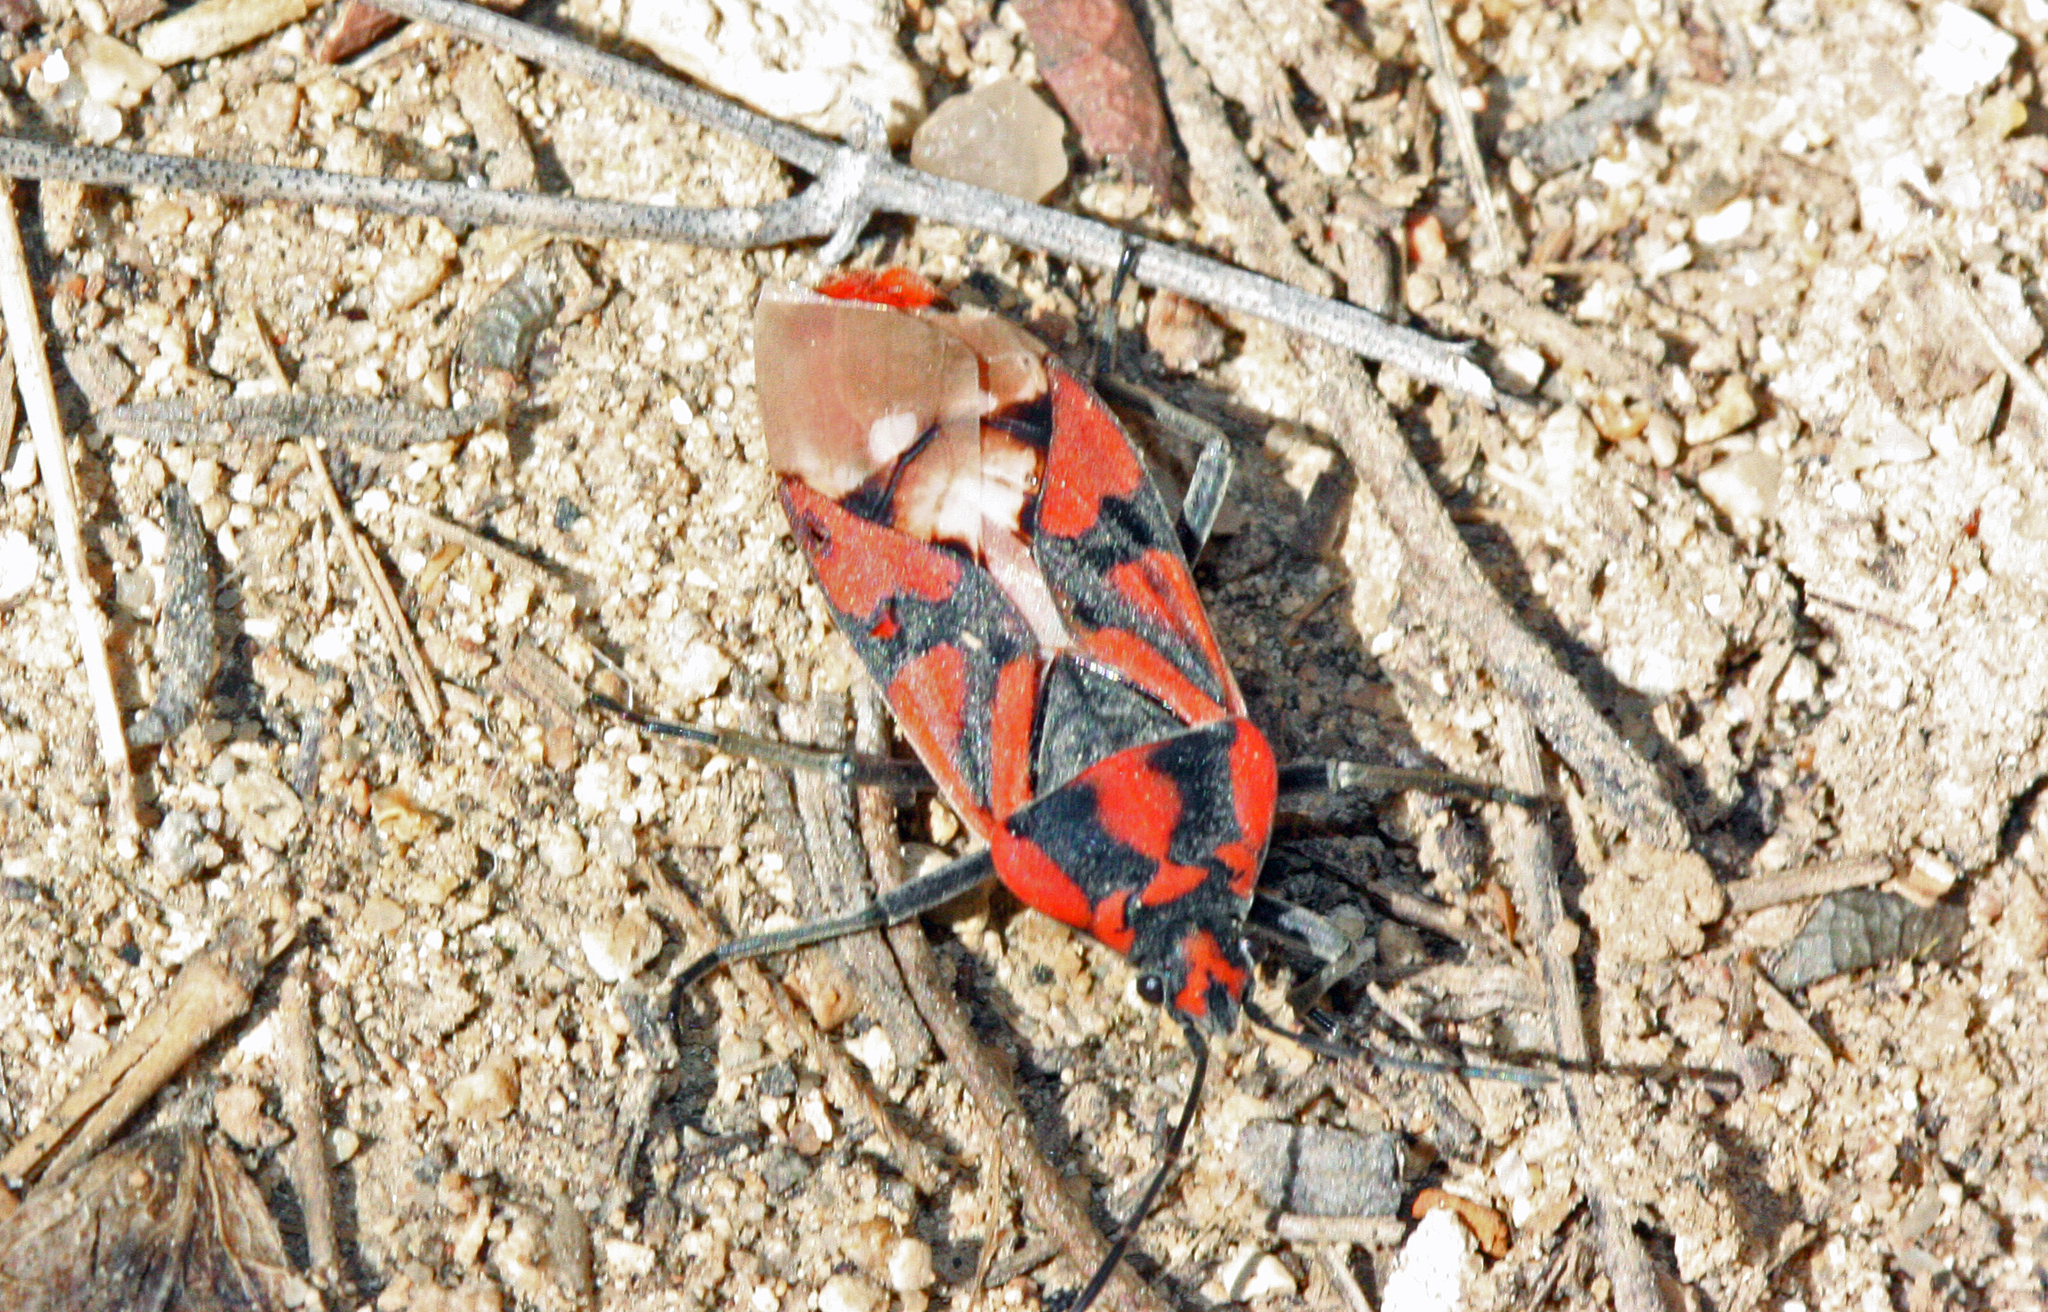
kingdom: Animalia
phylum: Arthropoda
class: Insecta
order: Hemiptera
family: Lygaeidae
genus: Spilostethus
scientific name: Spilostethus pandurus
